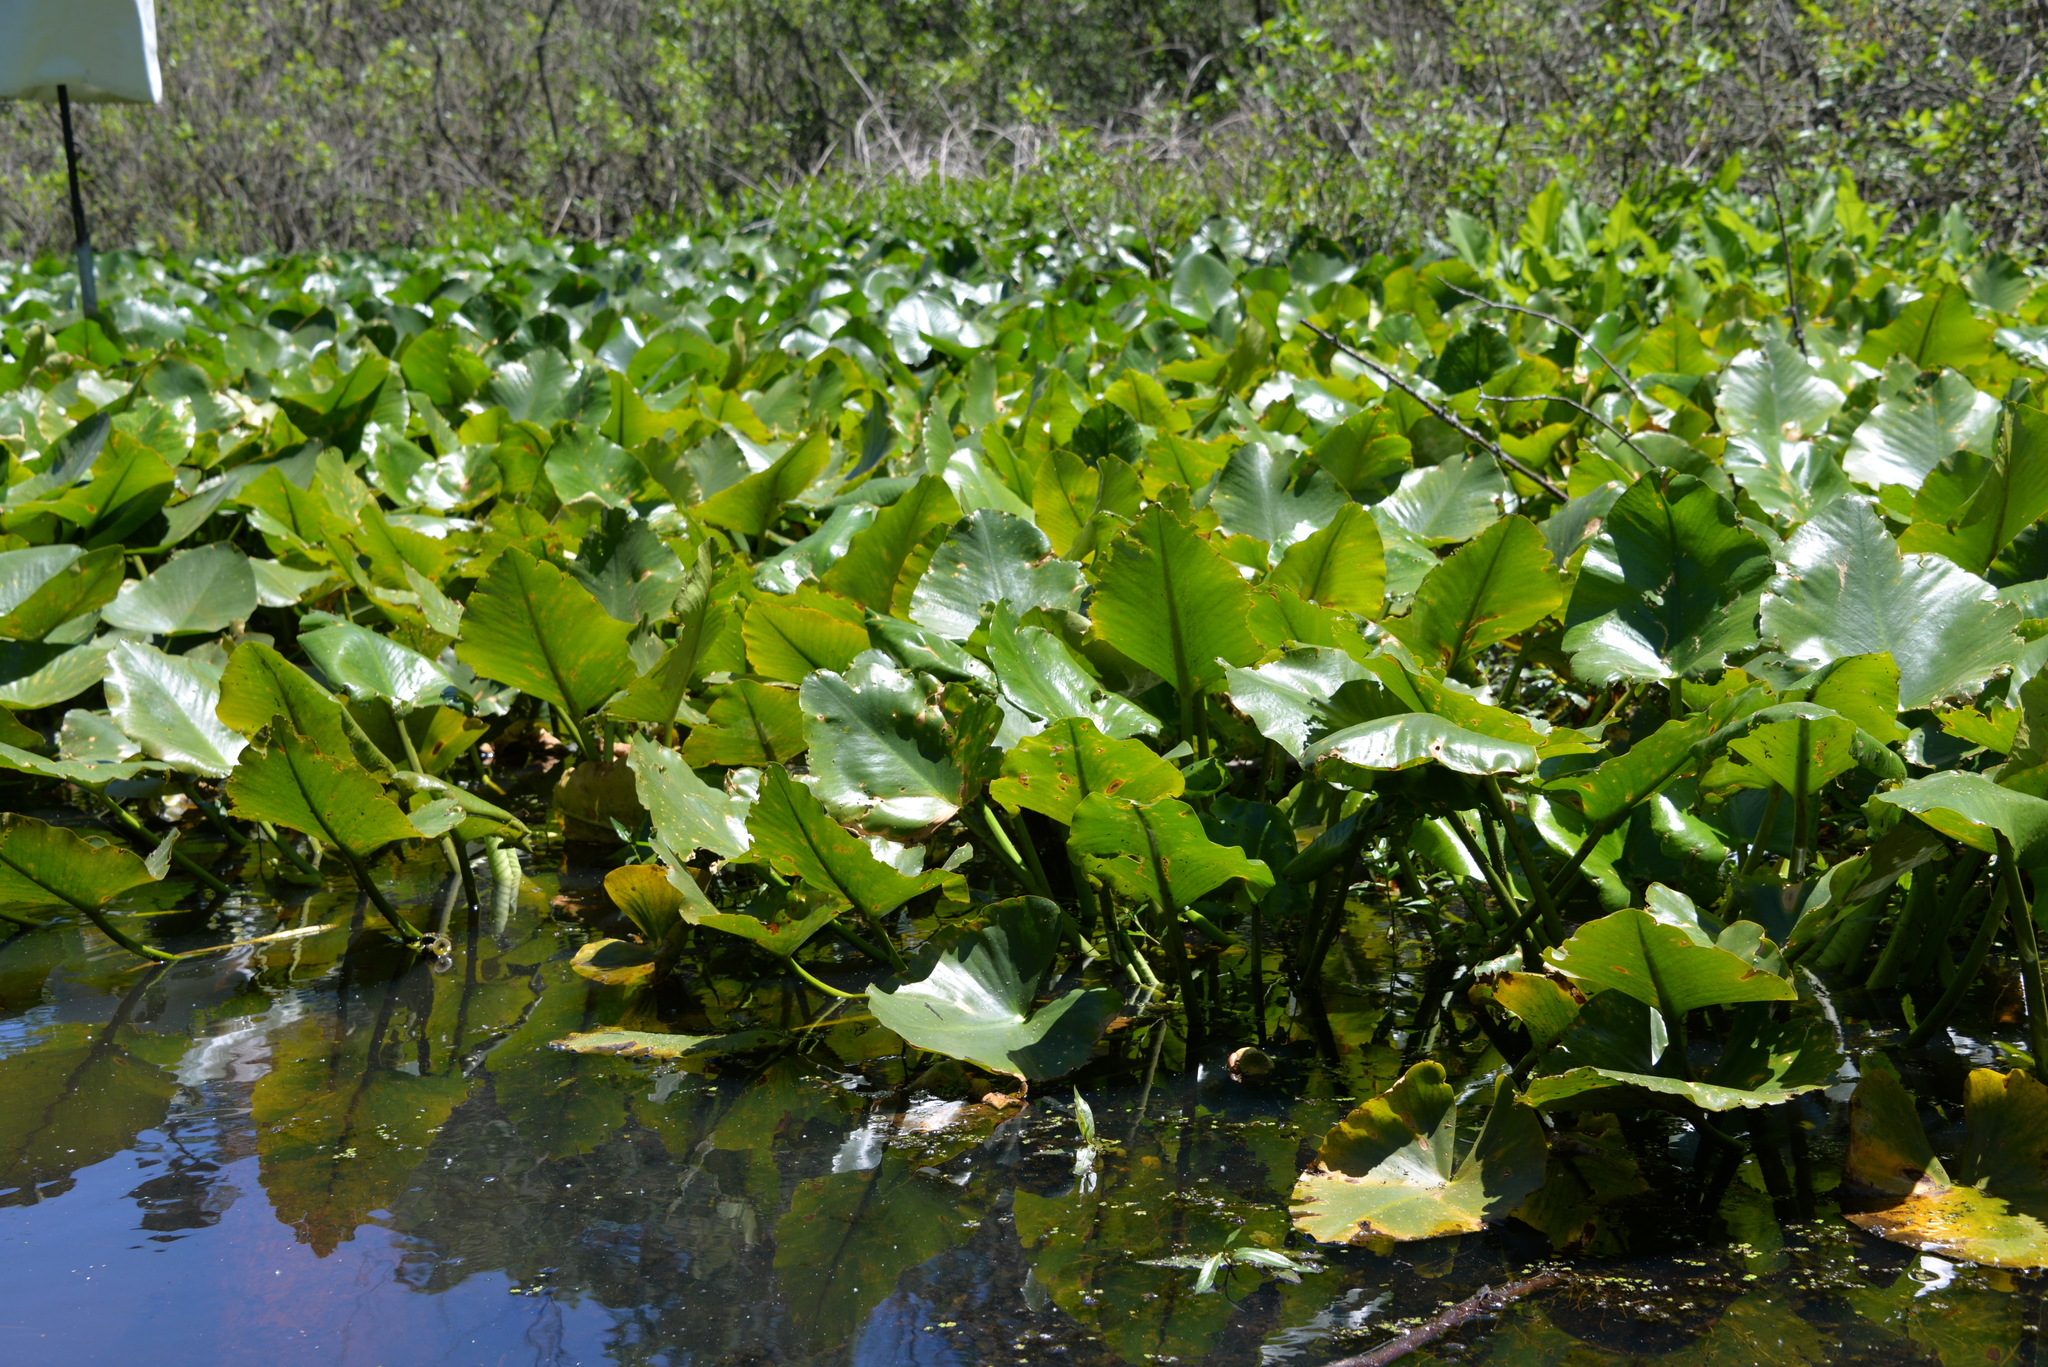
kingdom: Plantae
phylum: Tracheophyta
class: Magnoliopsida
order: Nymphaeales
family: Nymphaeaceae
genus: Nuphar
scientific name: Nuphar advena
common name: Spatter-dock
